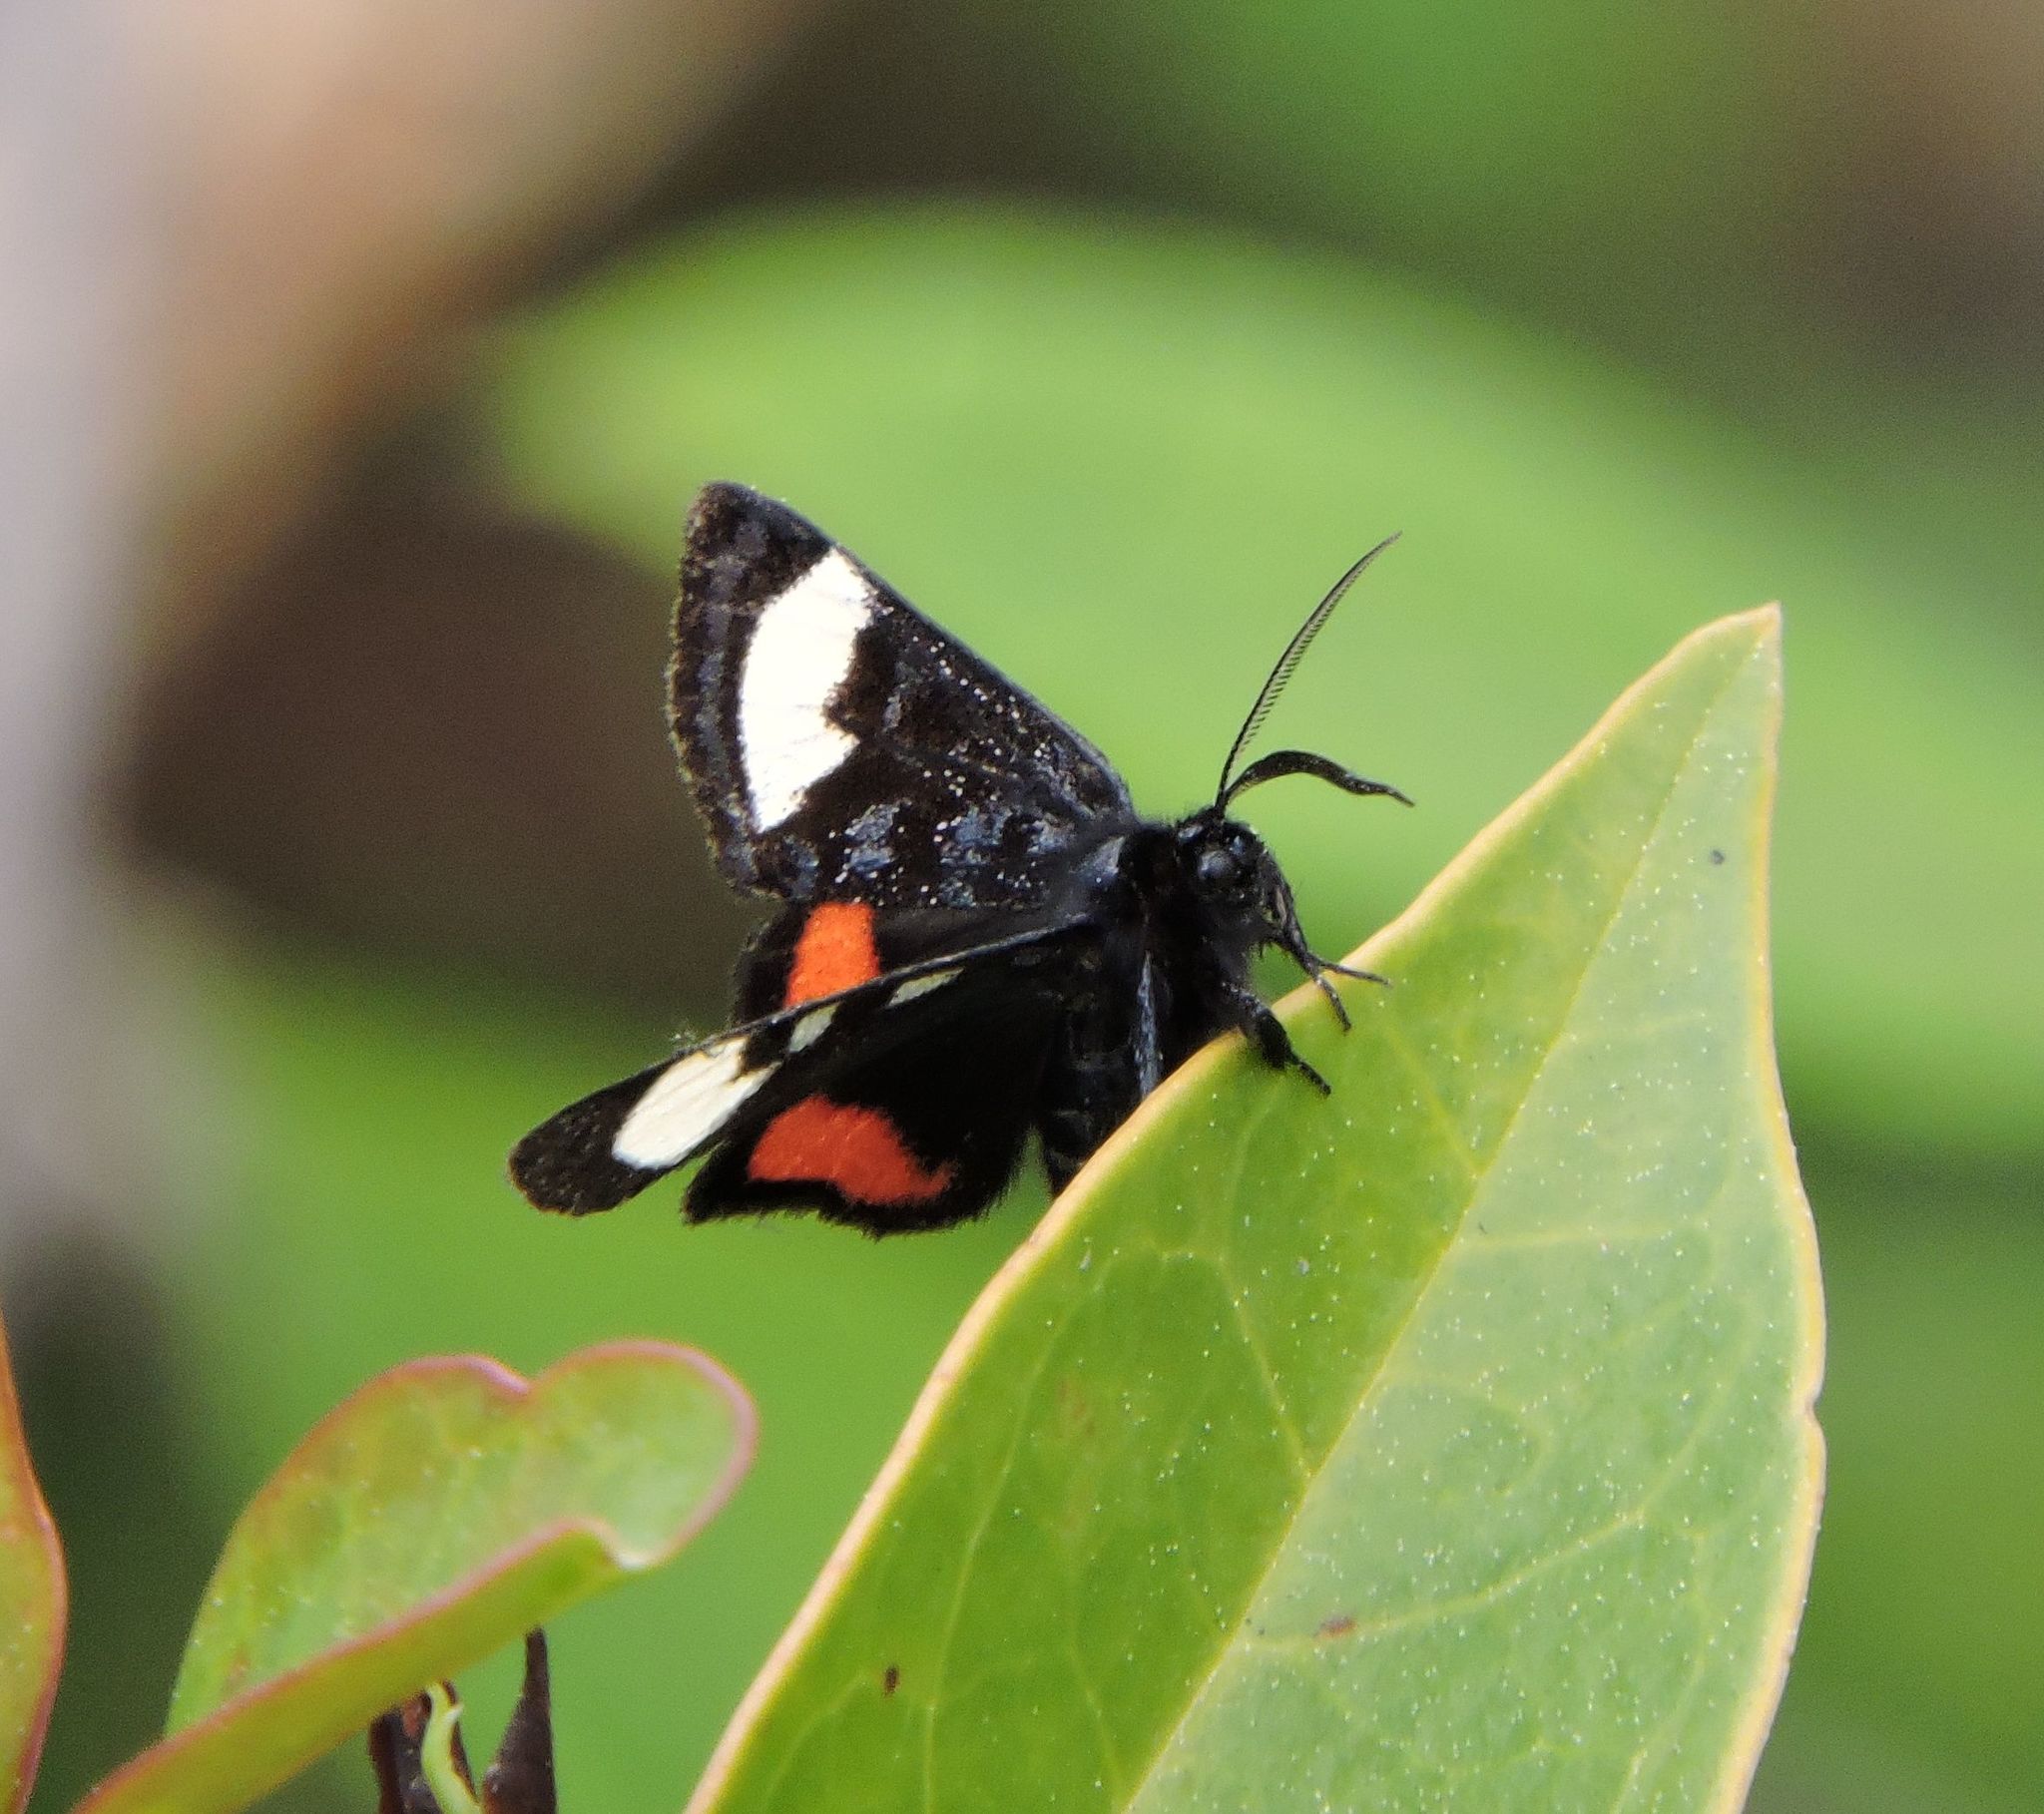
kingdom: Animalia
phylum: Arthropoda
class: Insecta
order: Lepidoptera
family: Noctuidae
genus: Psychomorpha
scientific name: Psychomorpha epimenis
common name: Grapevine epimenis moth
